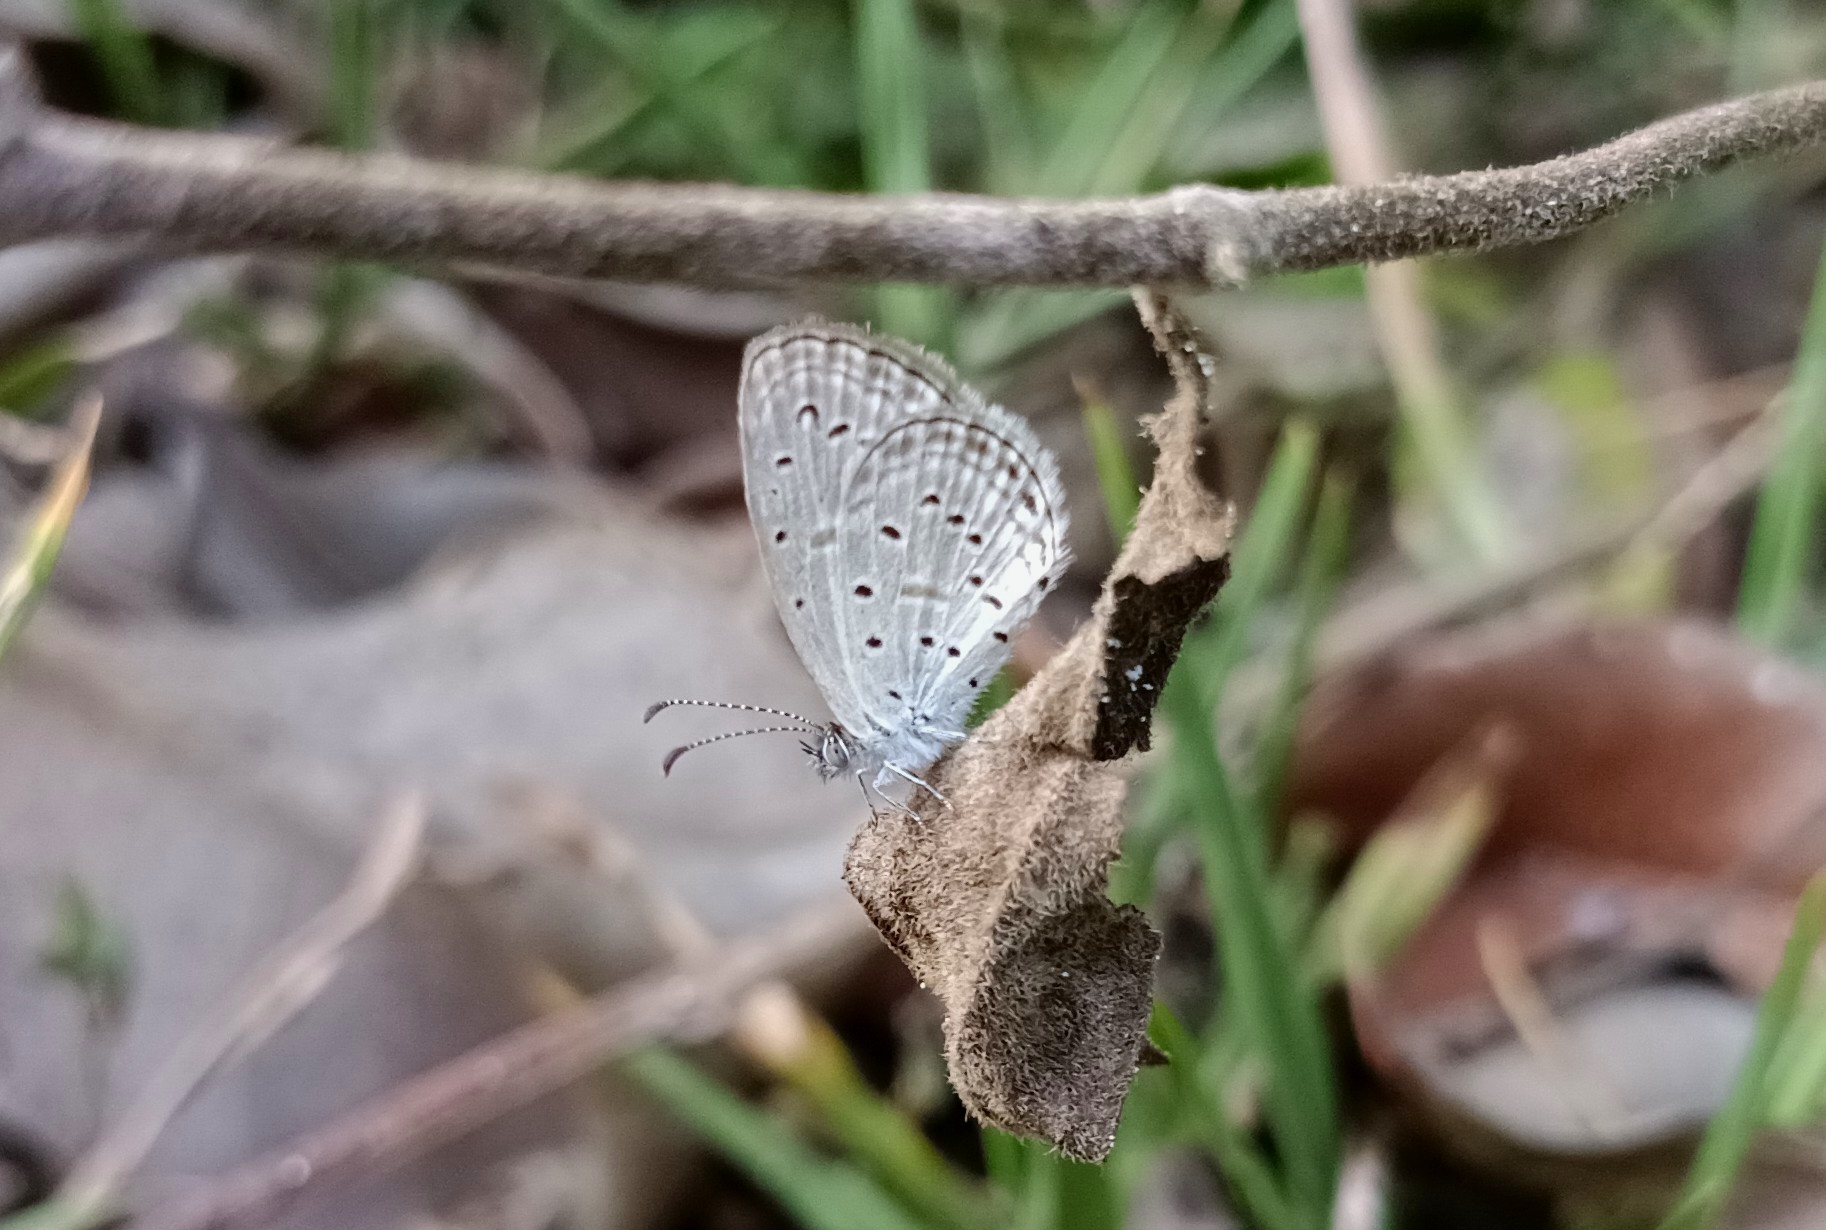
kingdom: Animalia
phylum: Arthropoda
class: Insecta
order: Lepidoptera
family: Lycaenidae
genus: Zizula
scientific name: Zizula hylax
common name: Gaika blue
